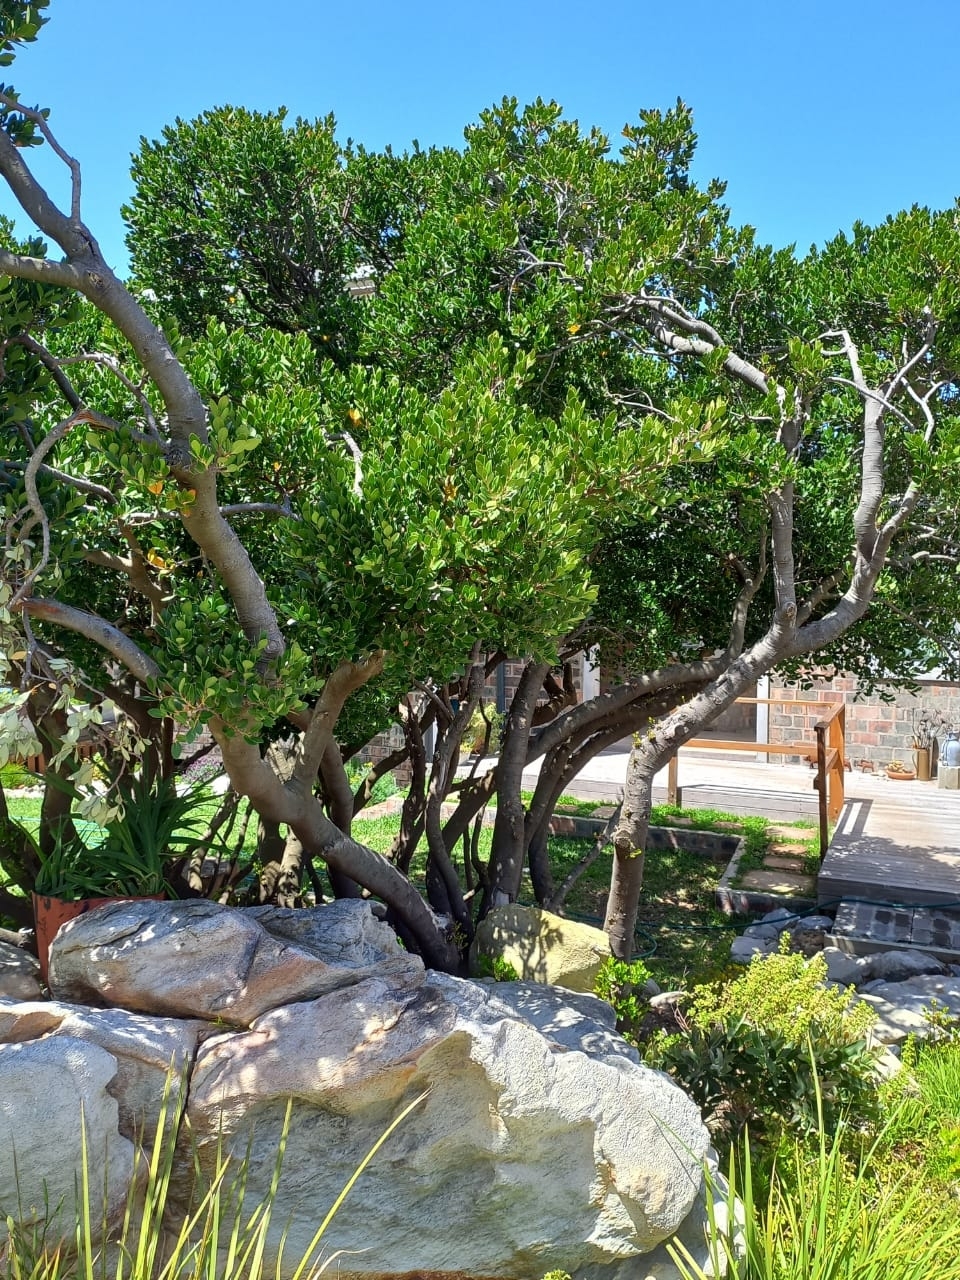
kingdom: Plantae
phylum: Tracheophyta
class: Magnoliopsida
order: Celastrales
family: Celastraceae
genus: Pterocelastrus
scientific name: Pterocelastrus tricuspidatus
